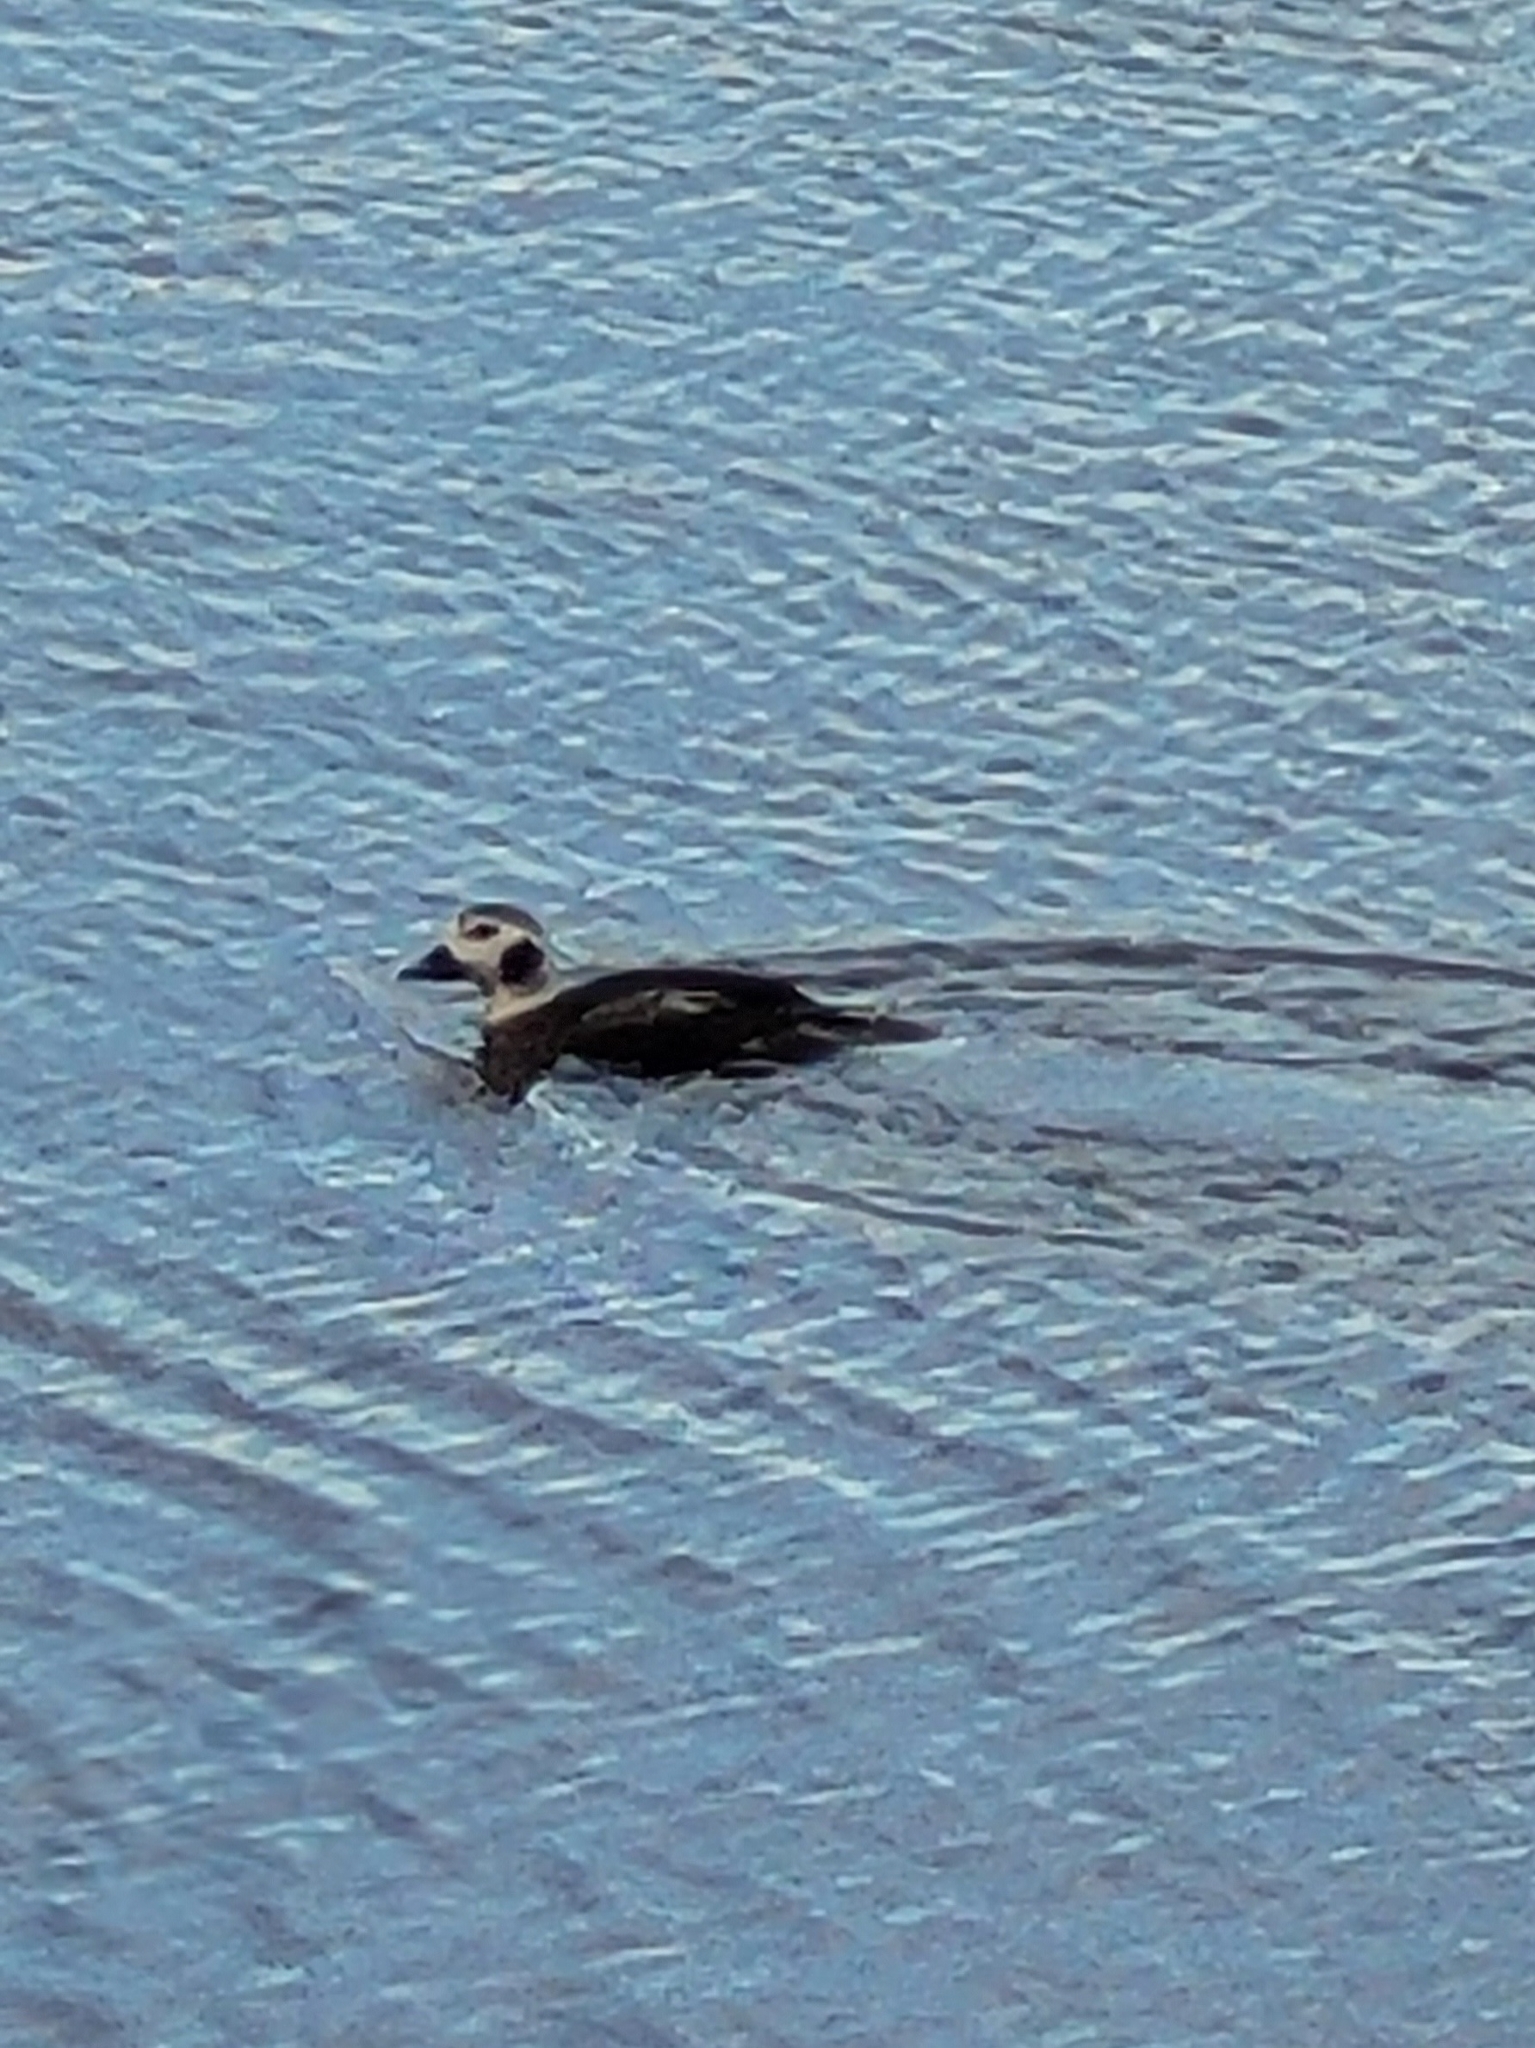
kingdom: Animalia
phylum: Chordata
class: Aves
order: Anseriformes
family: Anatidae
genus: Clangula
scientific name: Clangula hyemalis
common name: Long-tailed duck
